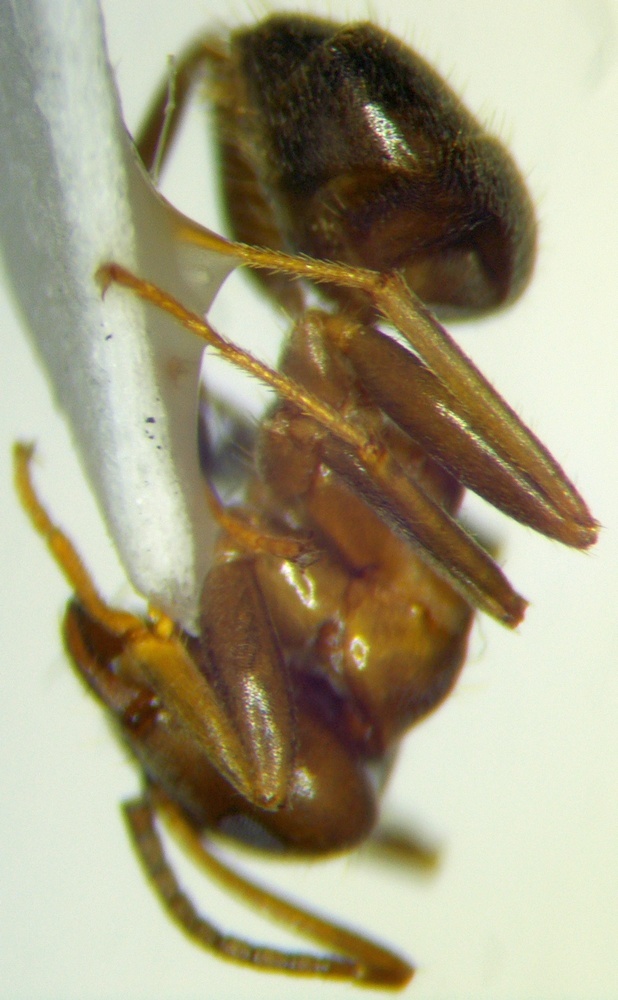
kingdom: Animalia
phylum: Arthropoda
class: Insecta
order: Hymenoptera
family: Formicidae
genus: Lasius
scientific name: Lasius emarginatus
